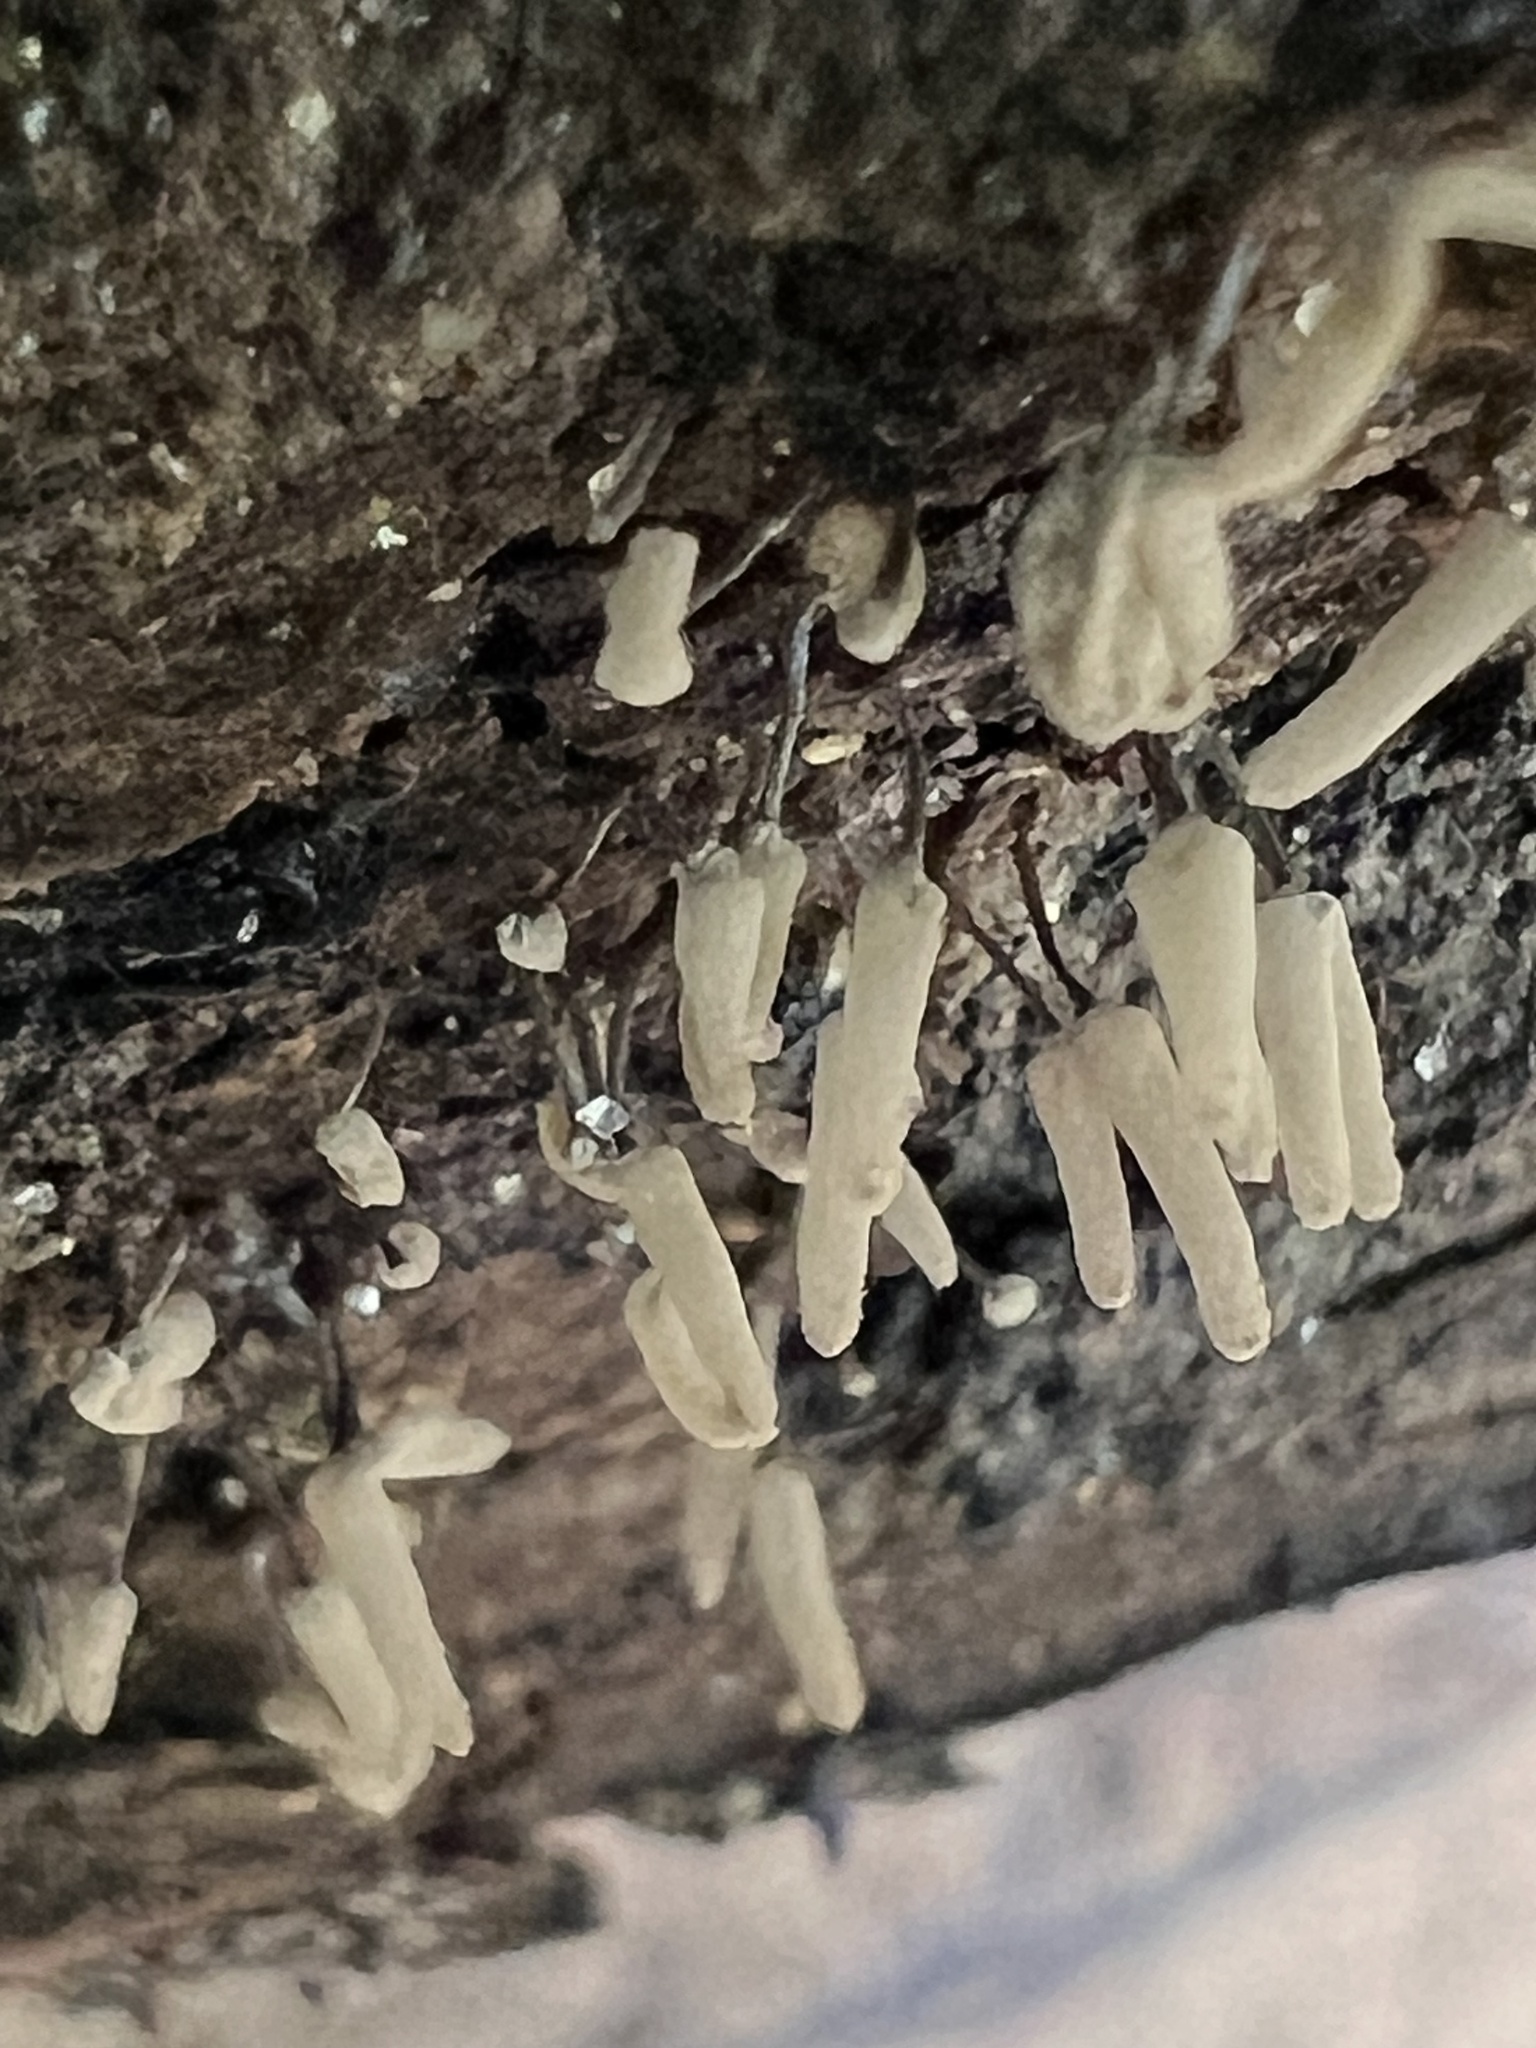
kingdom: Protozoa
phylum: Mycetozoa
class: Myxomycetes
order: Trichiales
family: Arcyriaceae
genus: Arcyria
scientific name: Arcyria cinerea
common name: White carnival candy slime mold
